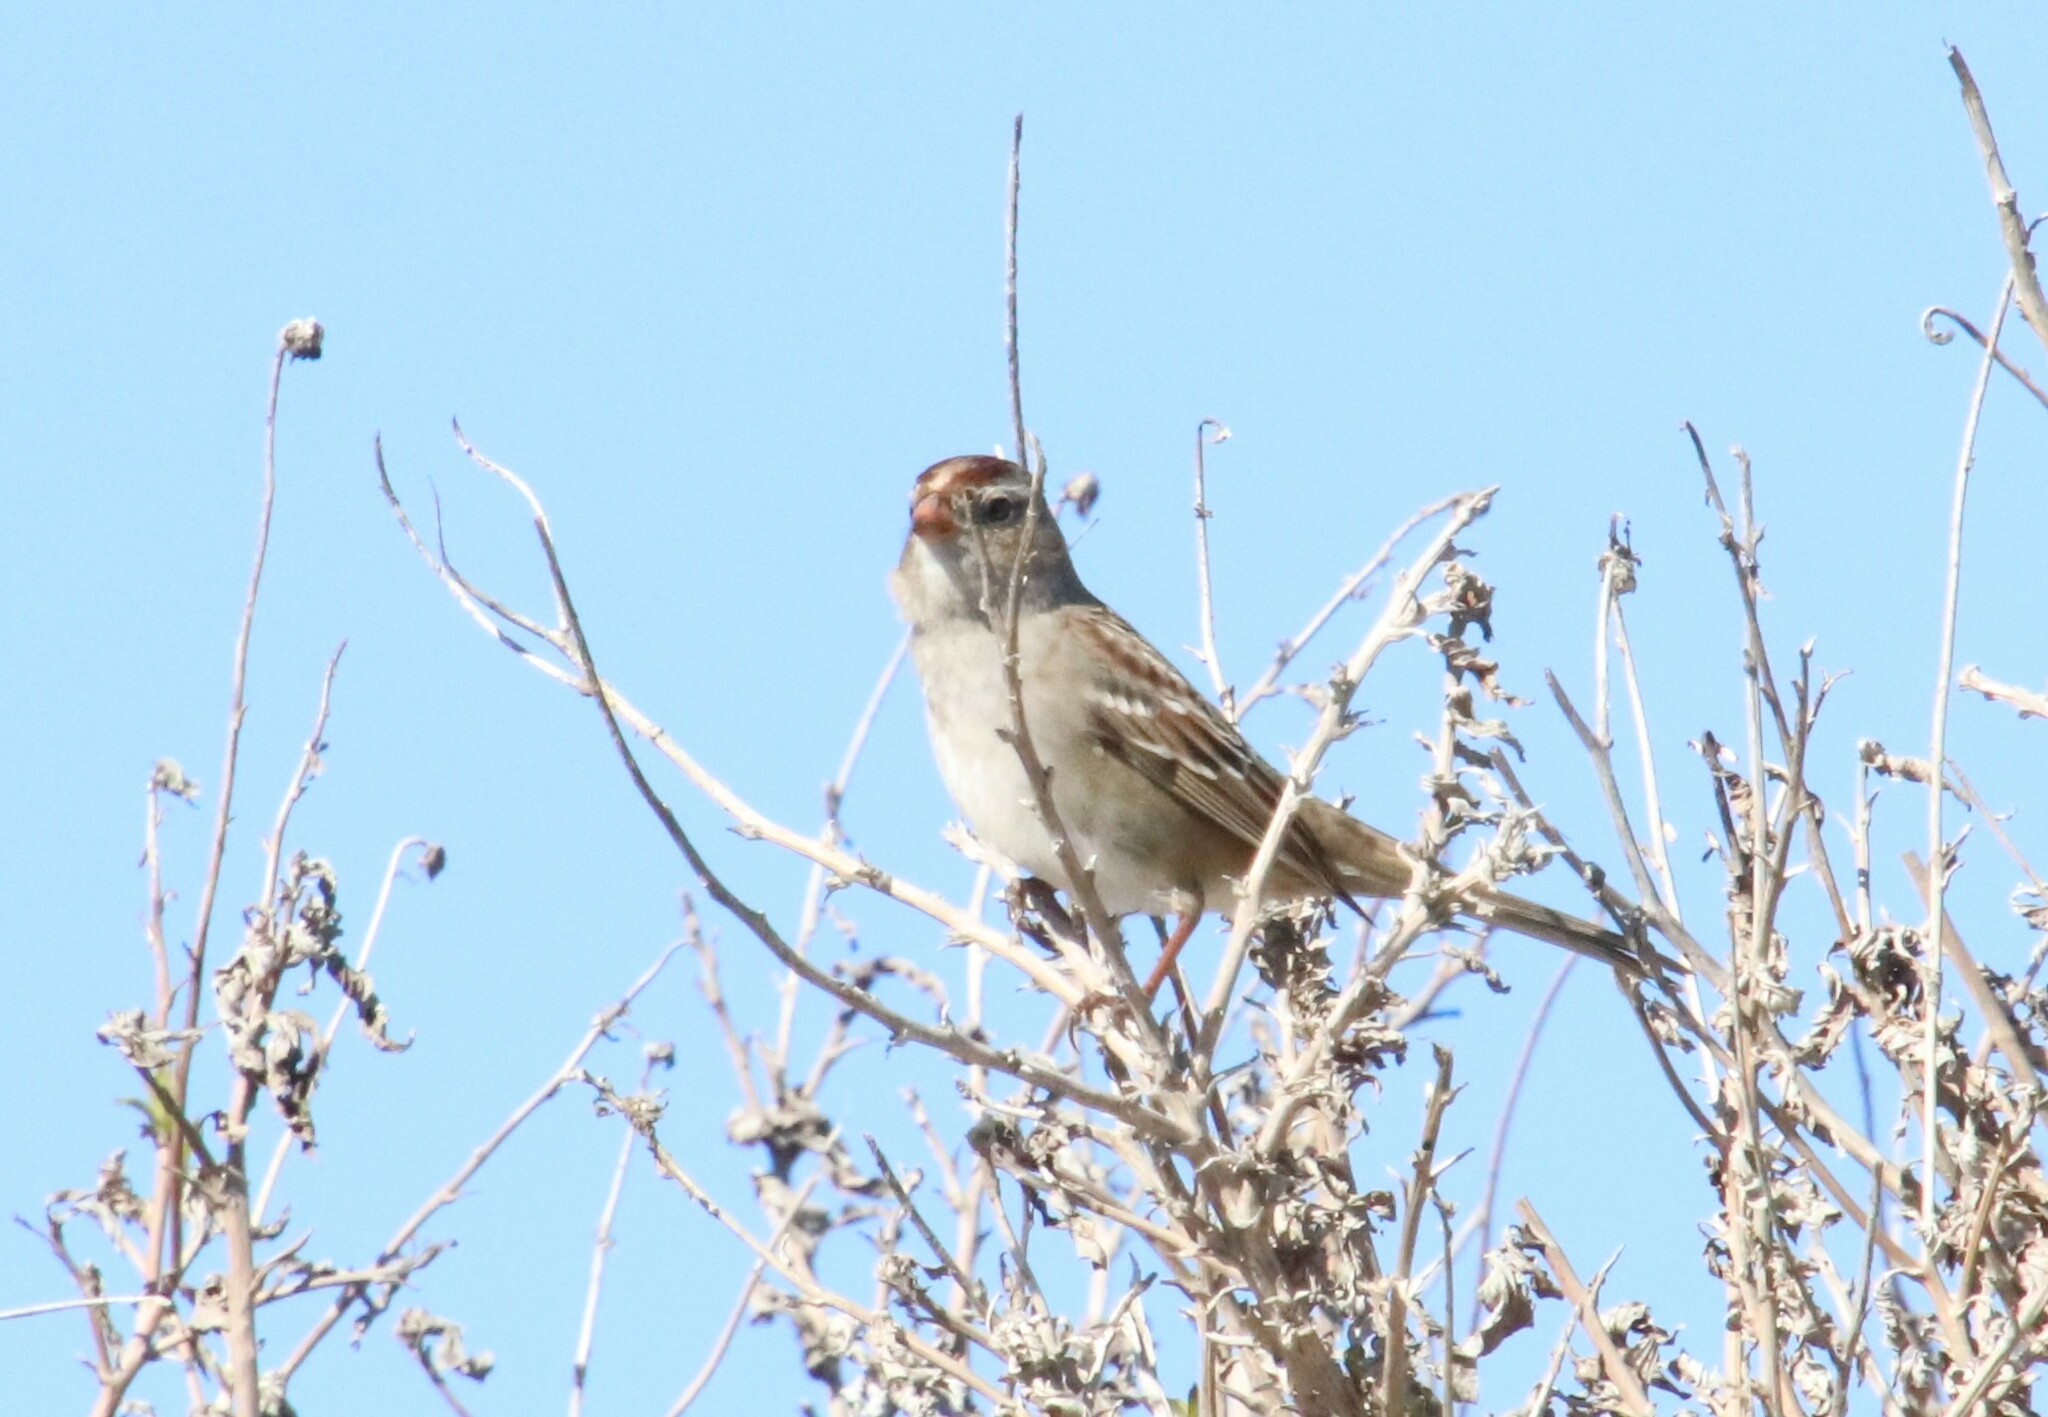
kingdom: Animalia
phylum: Chordata
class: Aves
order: Passeriformes
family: Passerellidae
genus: Zonotrichia
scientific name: Zonotrichia leucophrys
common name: White-crowned sparrow
